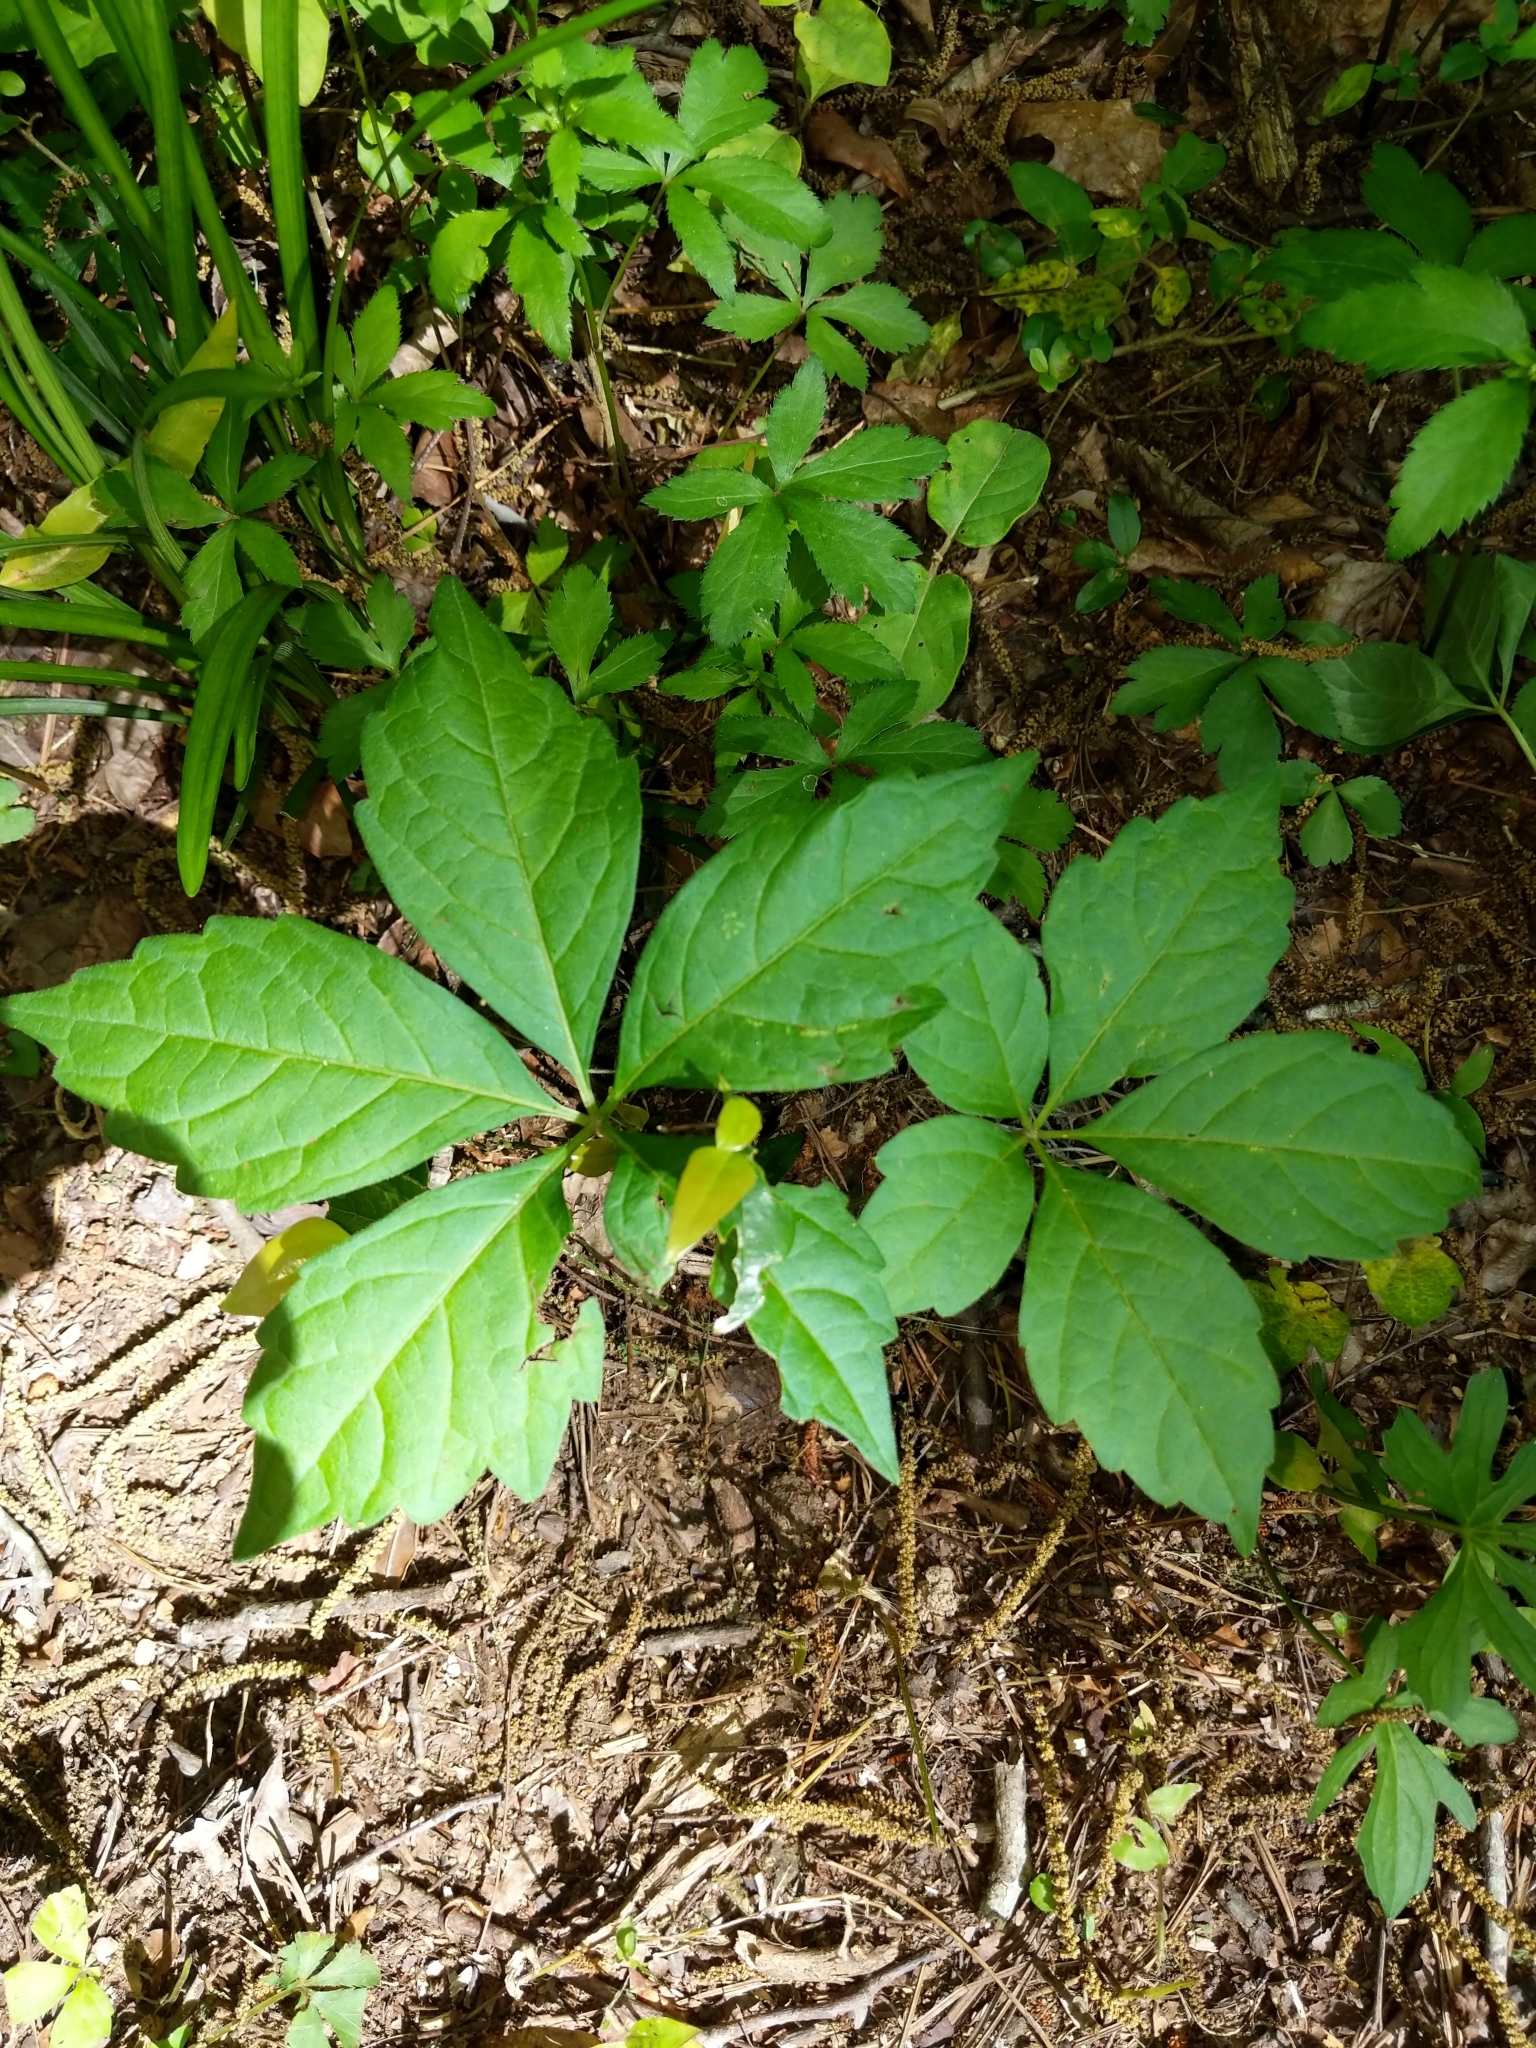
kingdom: Plantae
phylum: Tracheophyta
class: Magnoliopsida
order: Vitales
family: Vitaceae
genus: Parthenocissus
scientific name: Parthenocissus quinquefolia
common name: Virginia-creeper
